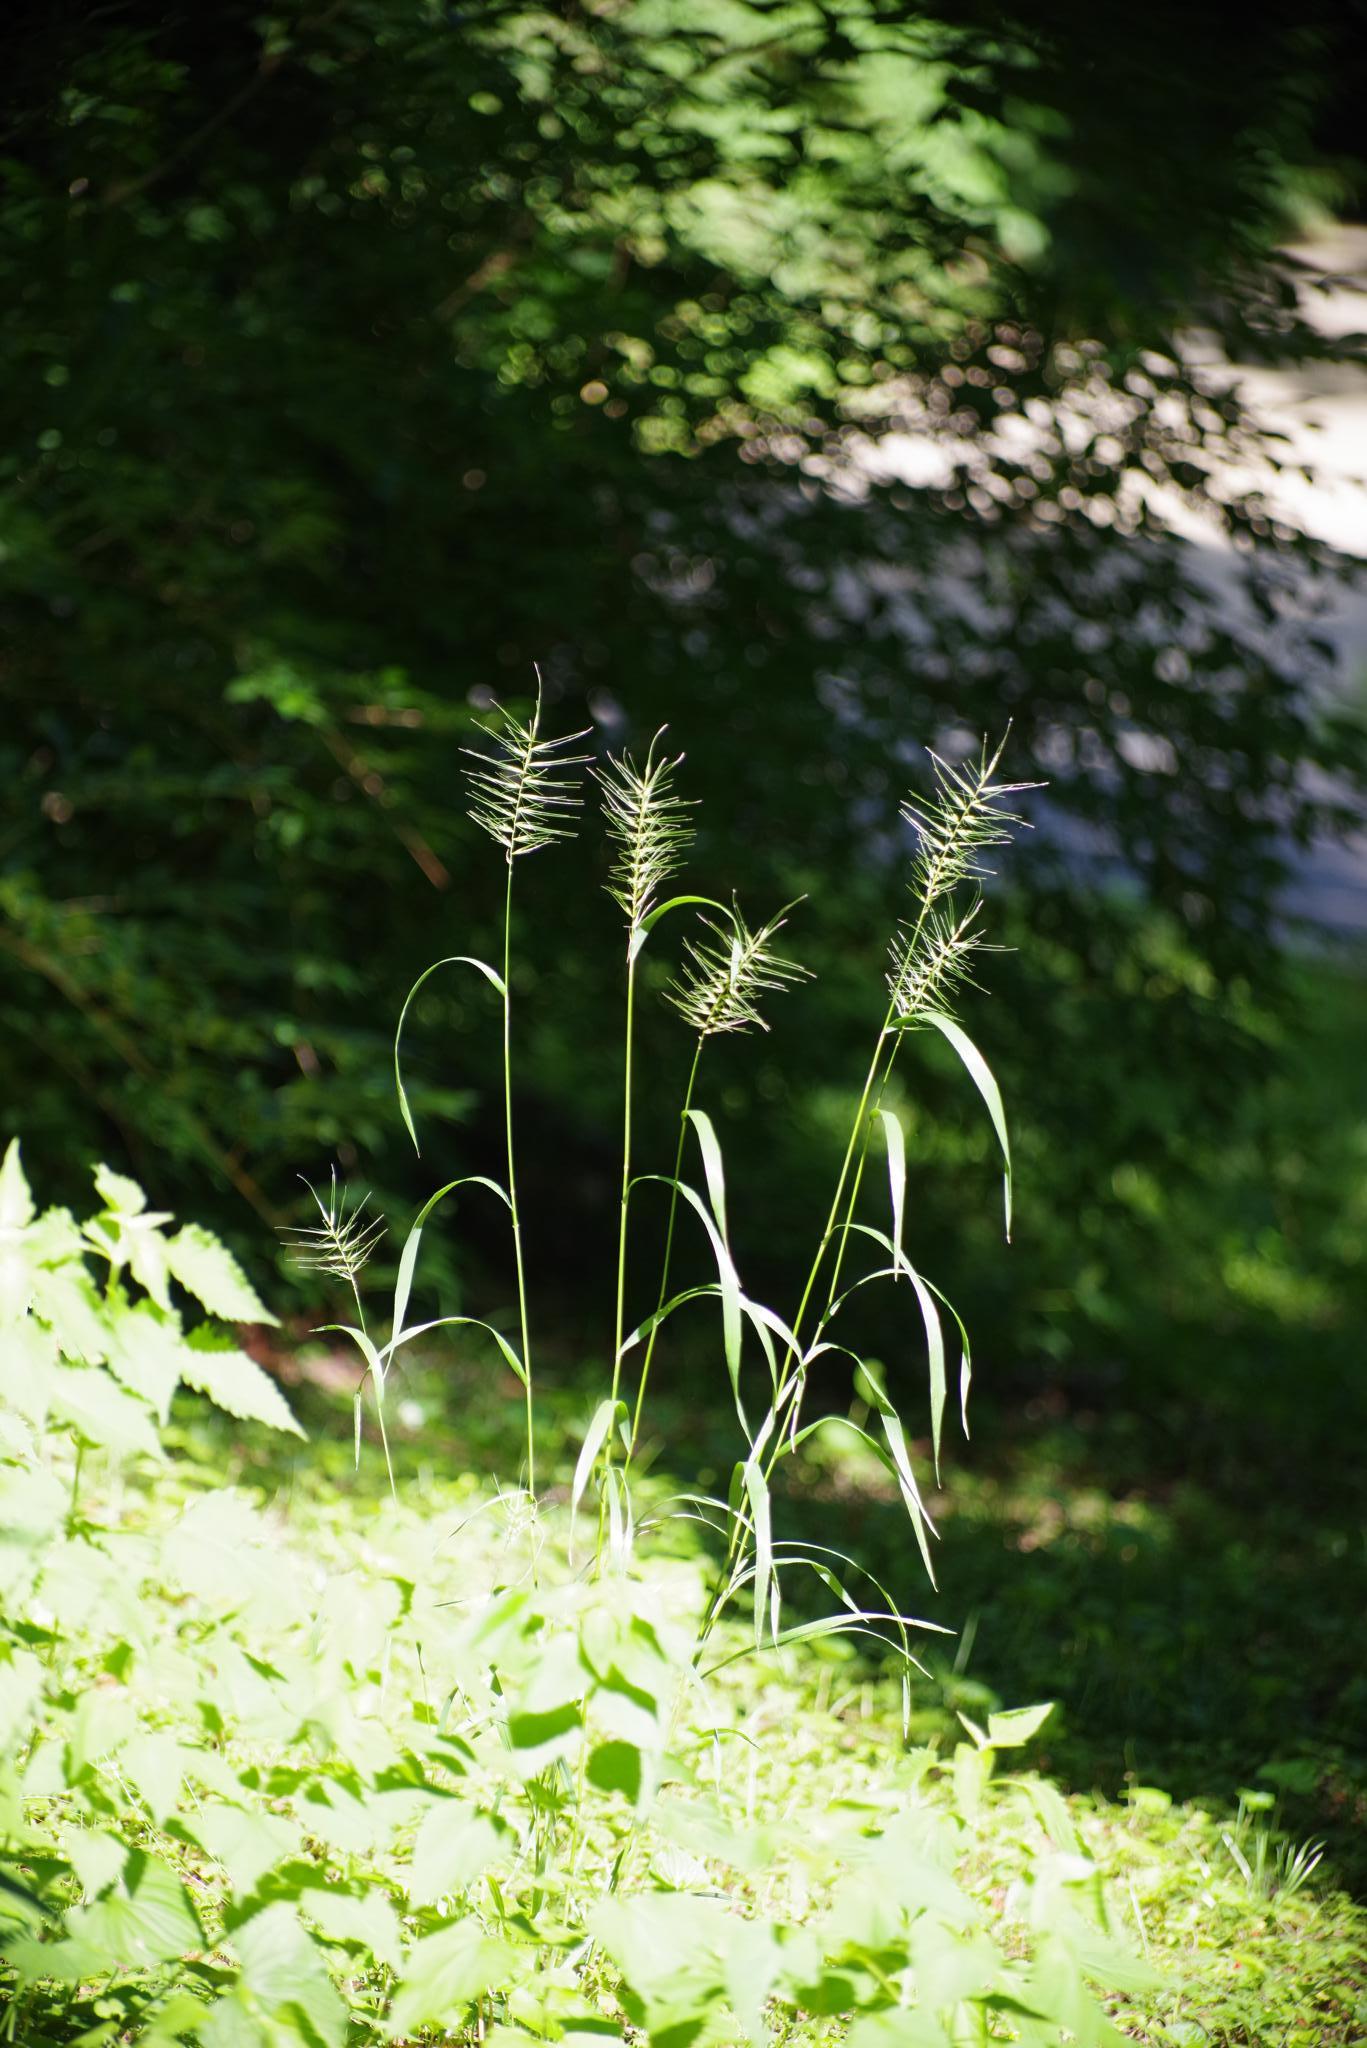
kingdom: Plantae
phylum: Tracheophyta
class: Liliopsida
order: Poales
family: Poaceae
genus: Elymus
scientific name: Elymus hystrix
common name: Bottlebrush grass
